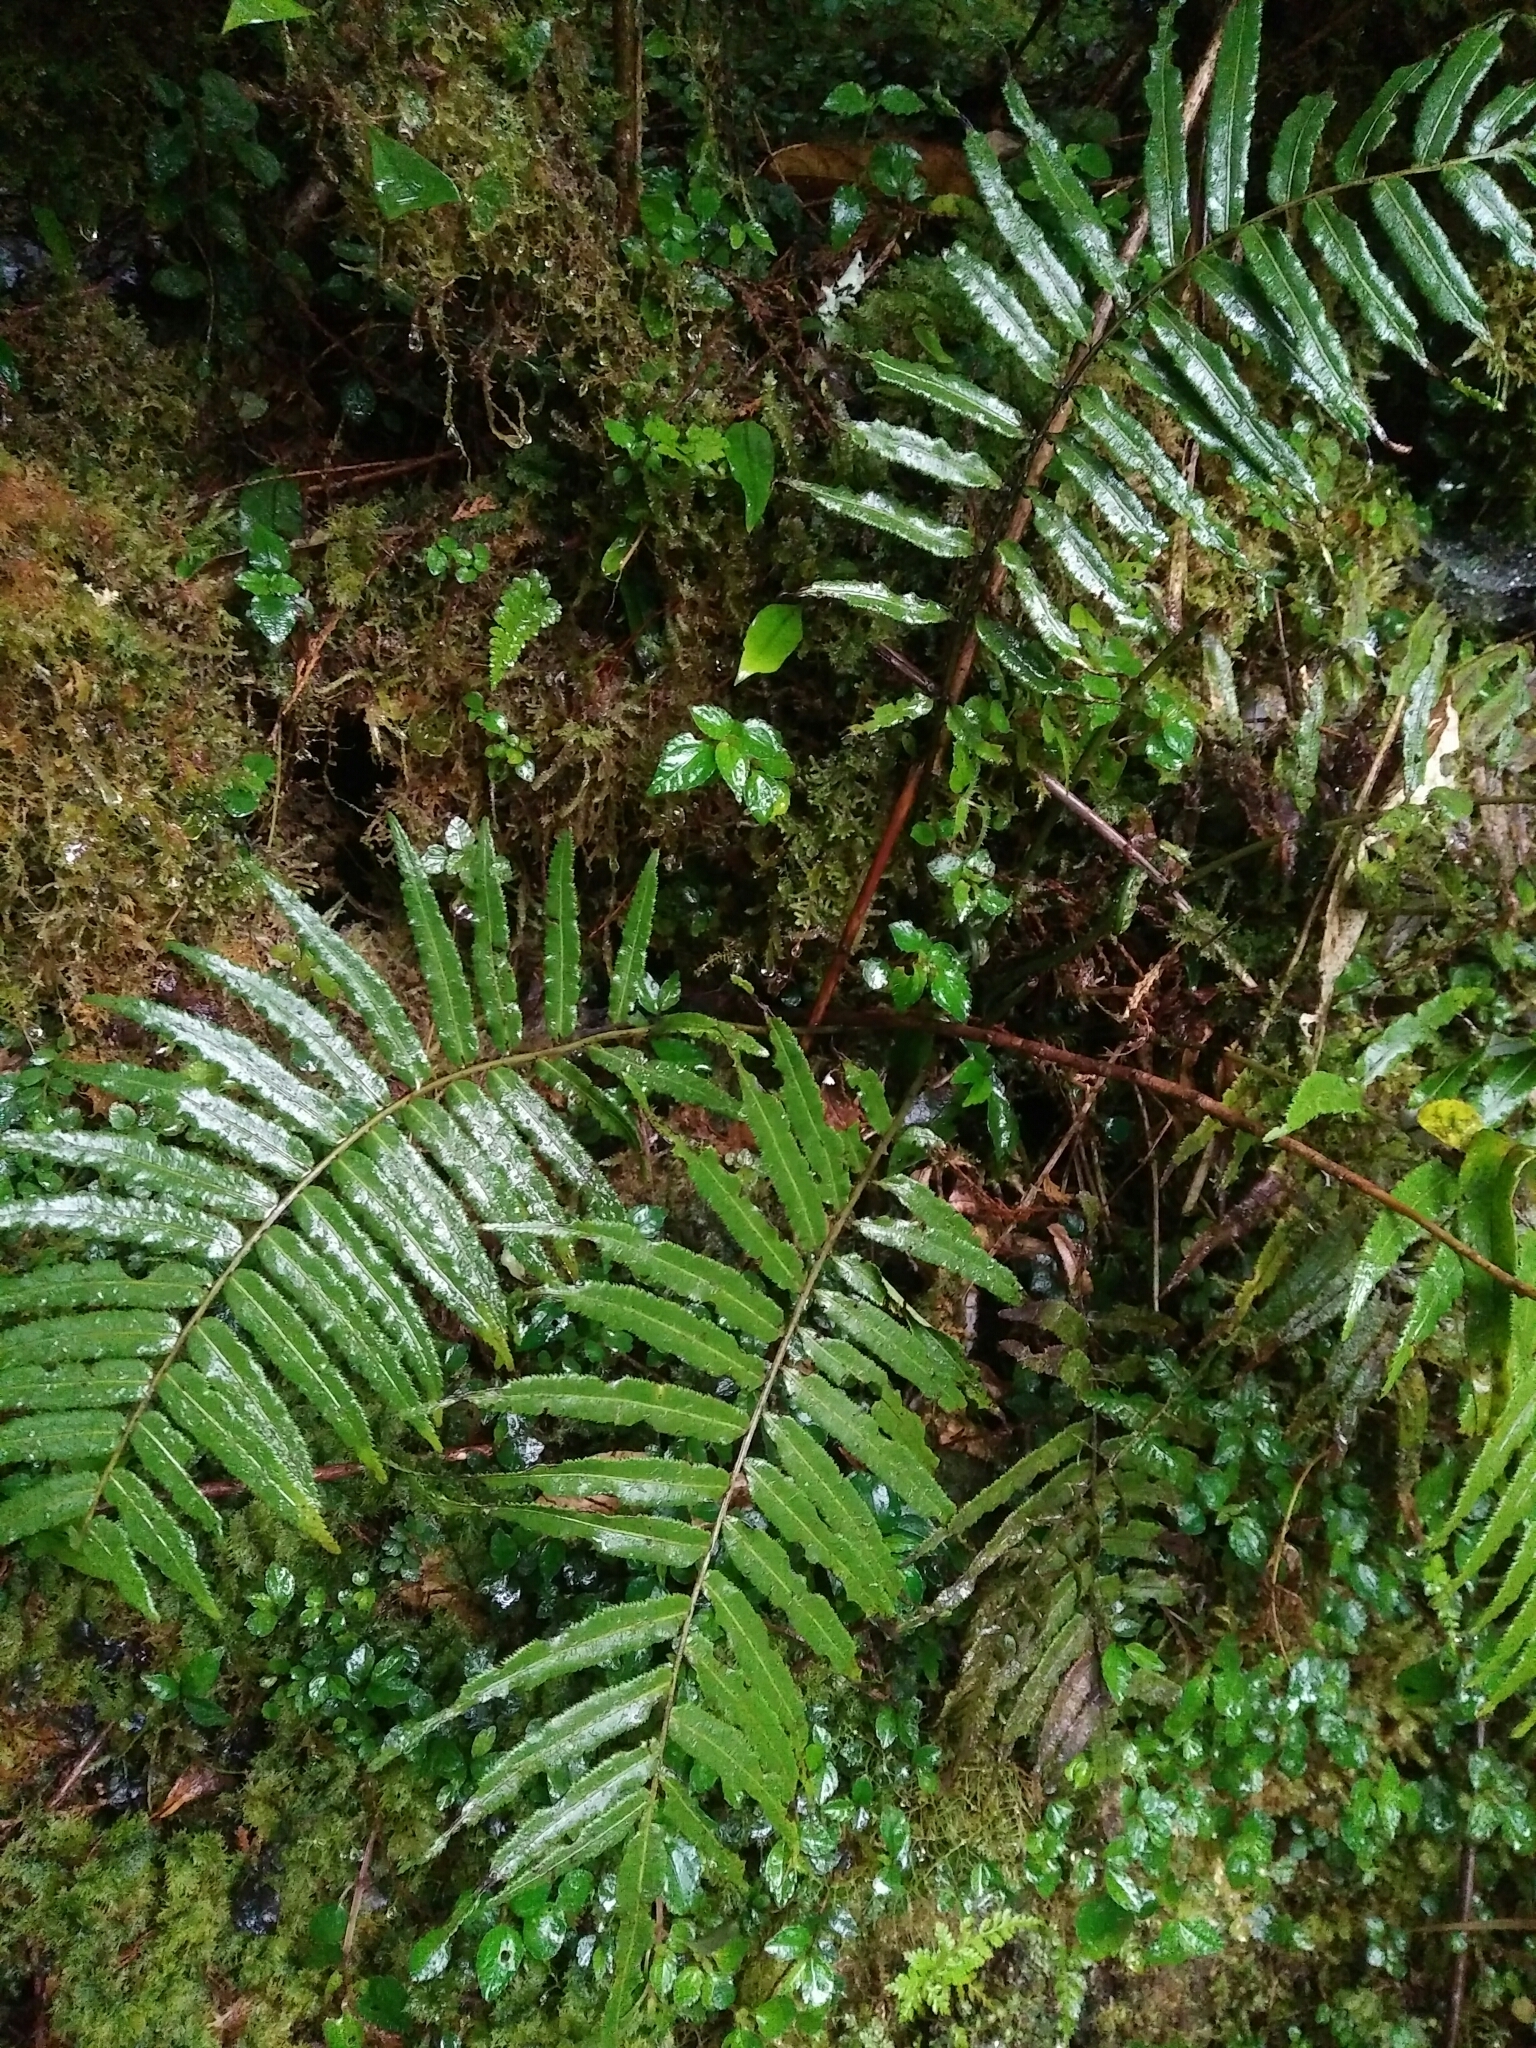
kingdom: Plantae
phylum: Tracheophyta
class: Polypodiopsida
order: Cyatheales
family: Plagiogyriaceae
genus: Plagiogyria
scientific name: Plagiogyria glauca
